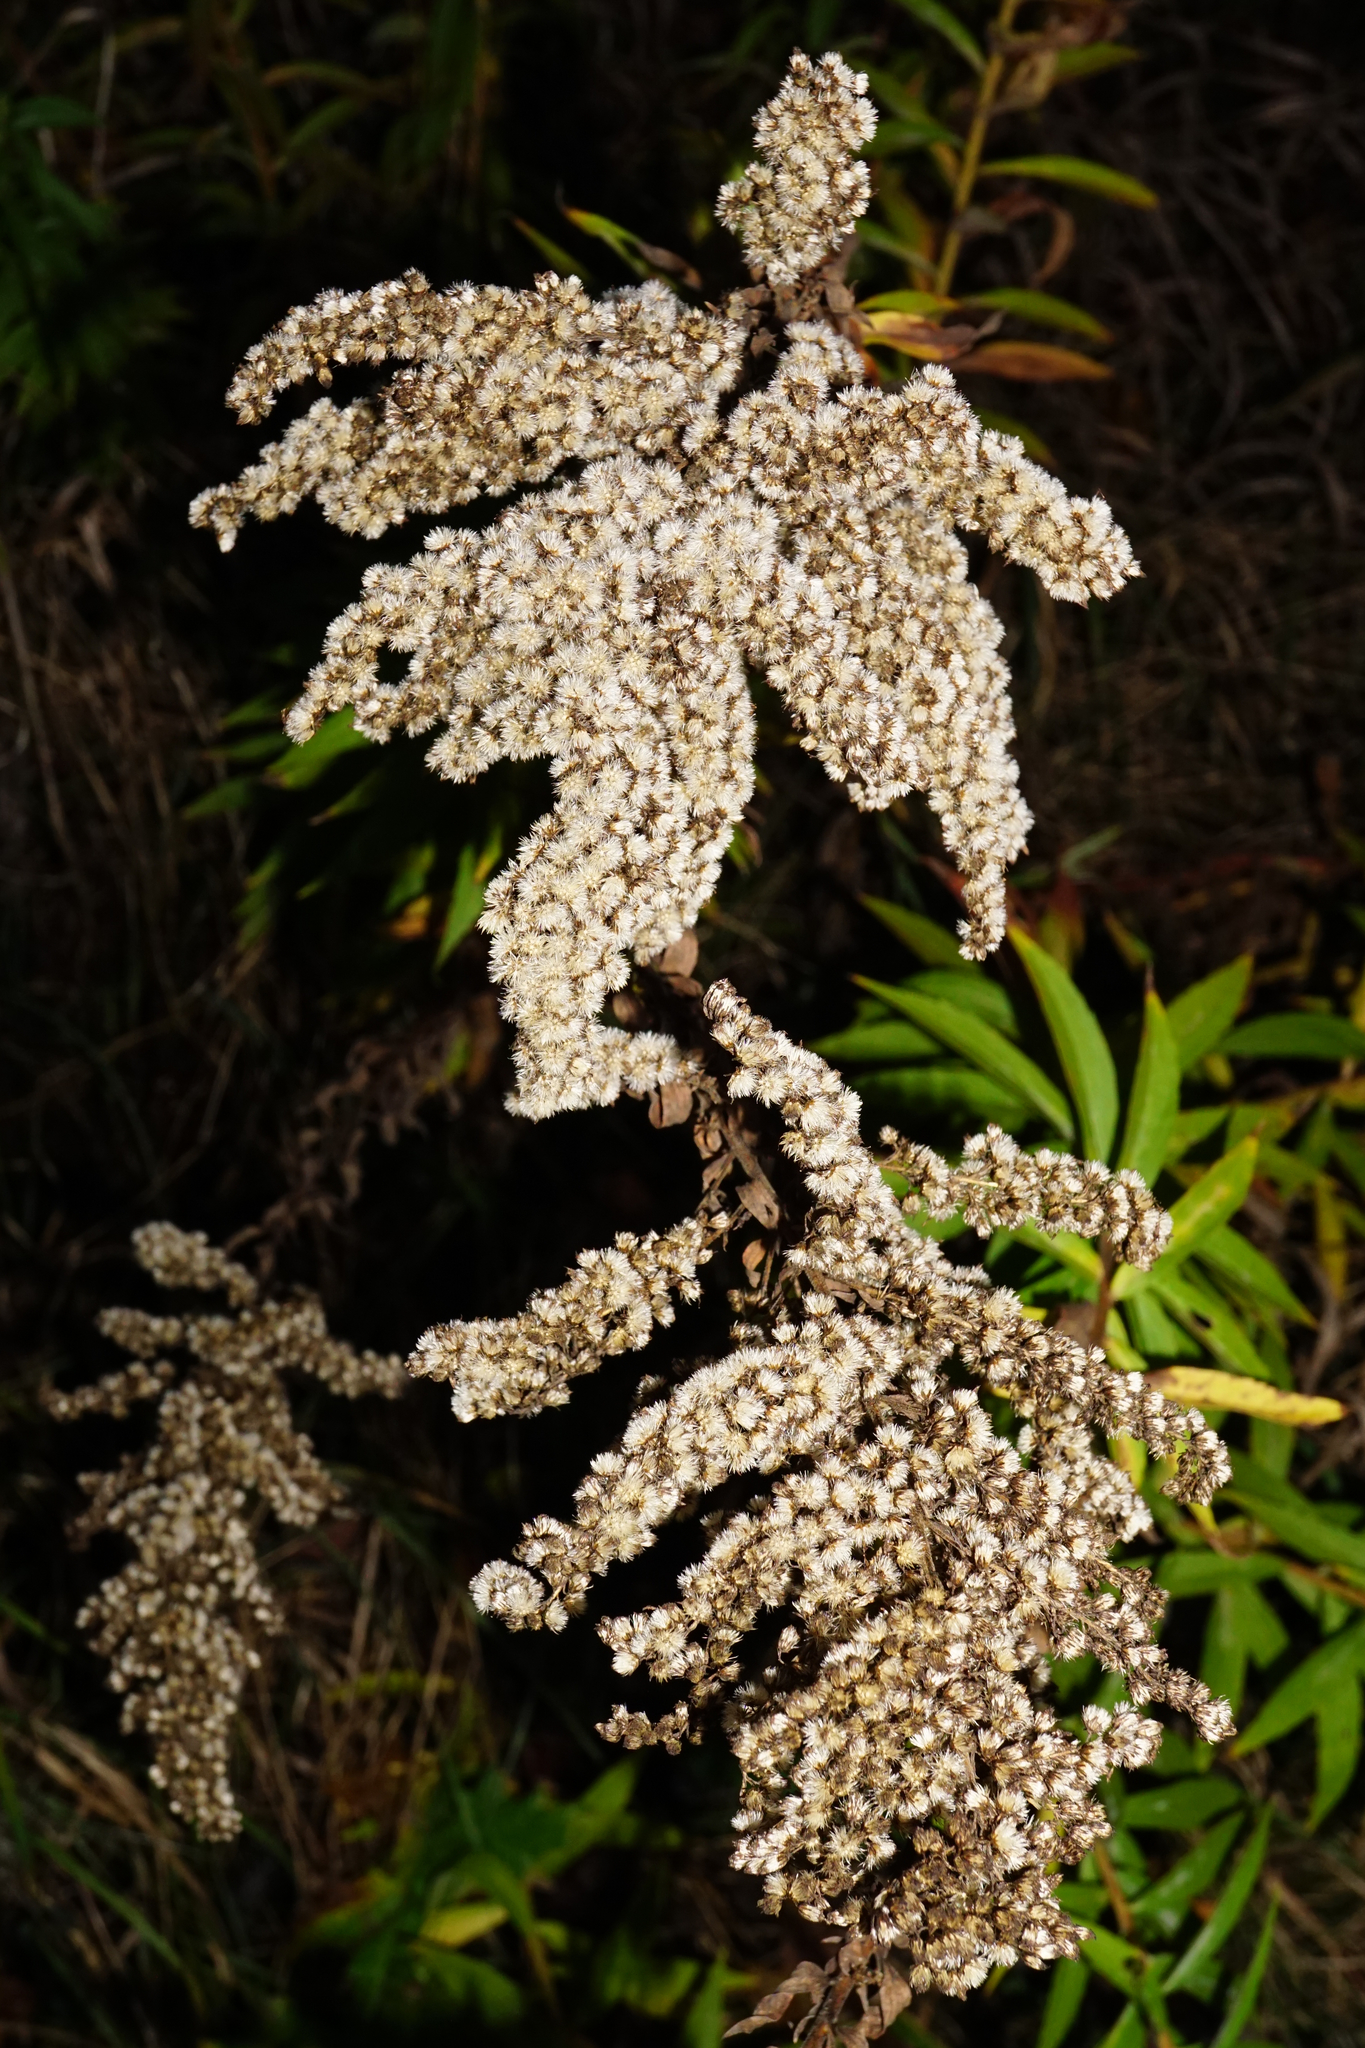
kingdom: Plantae
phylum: Tracheophyta
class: Magnoliopsida
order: Asterales
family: Asteraceae
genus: Solidago
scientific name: Solidago canadensis
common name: Canada goldenrod
